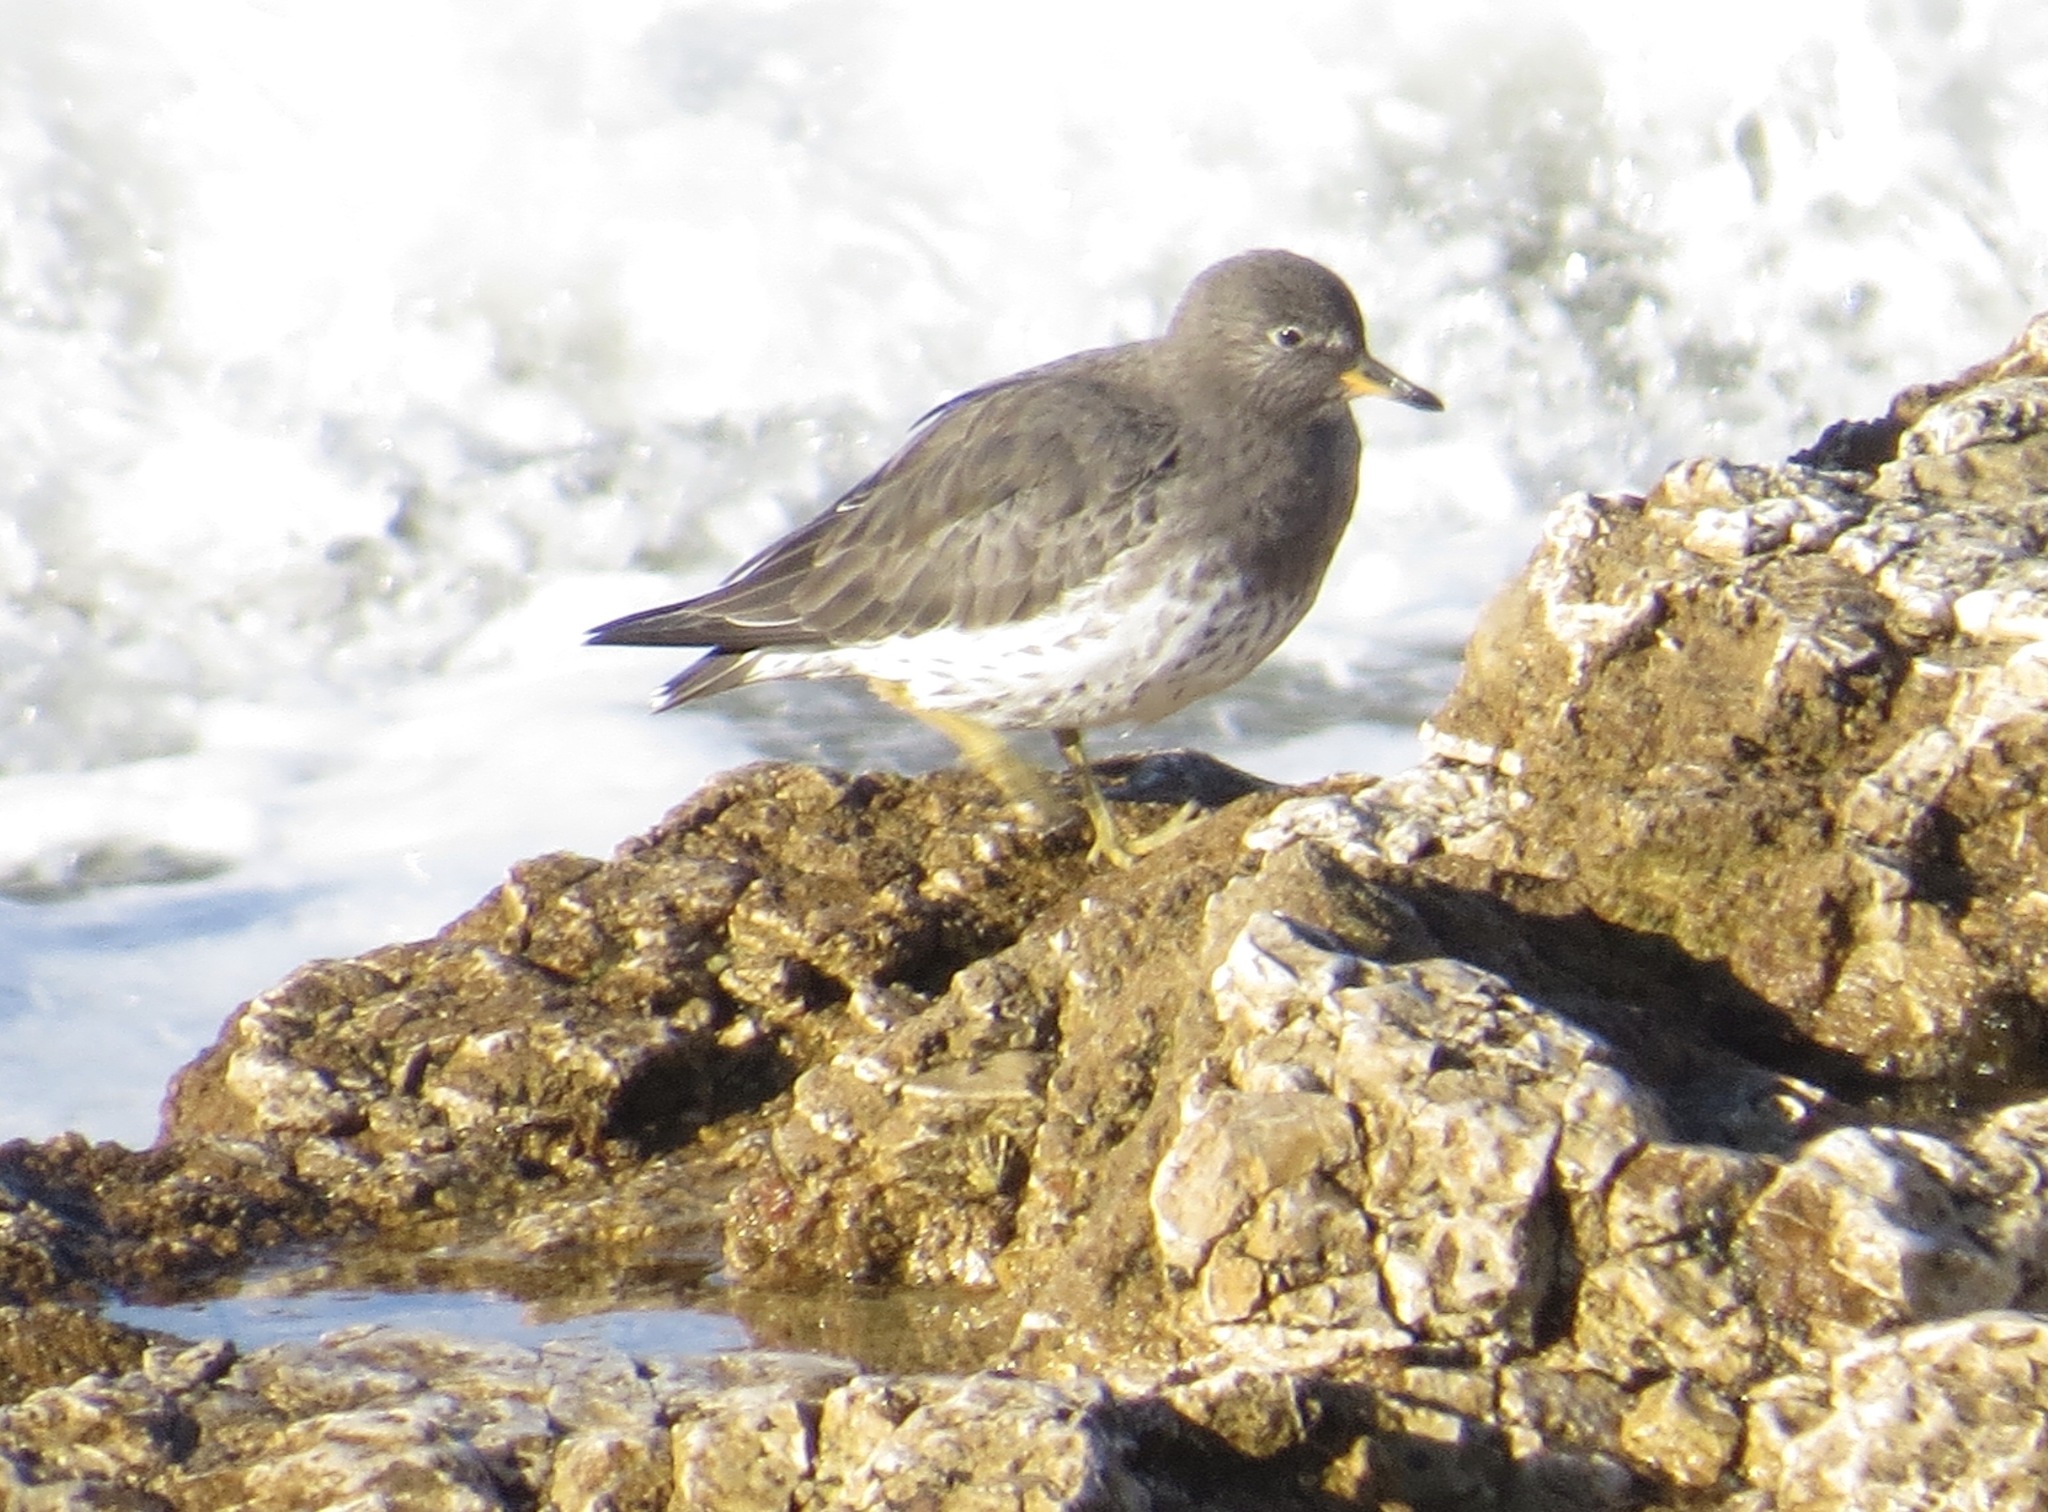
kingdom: Animalia
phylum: Chordata
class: Aves
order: Charadriiformes
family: Scolopacidae
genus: Calidris
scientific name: Calidris virgata
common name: Surfbird
